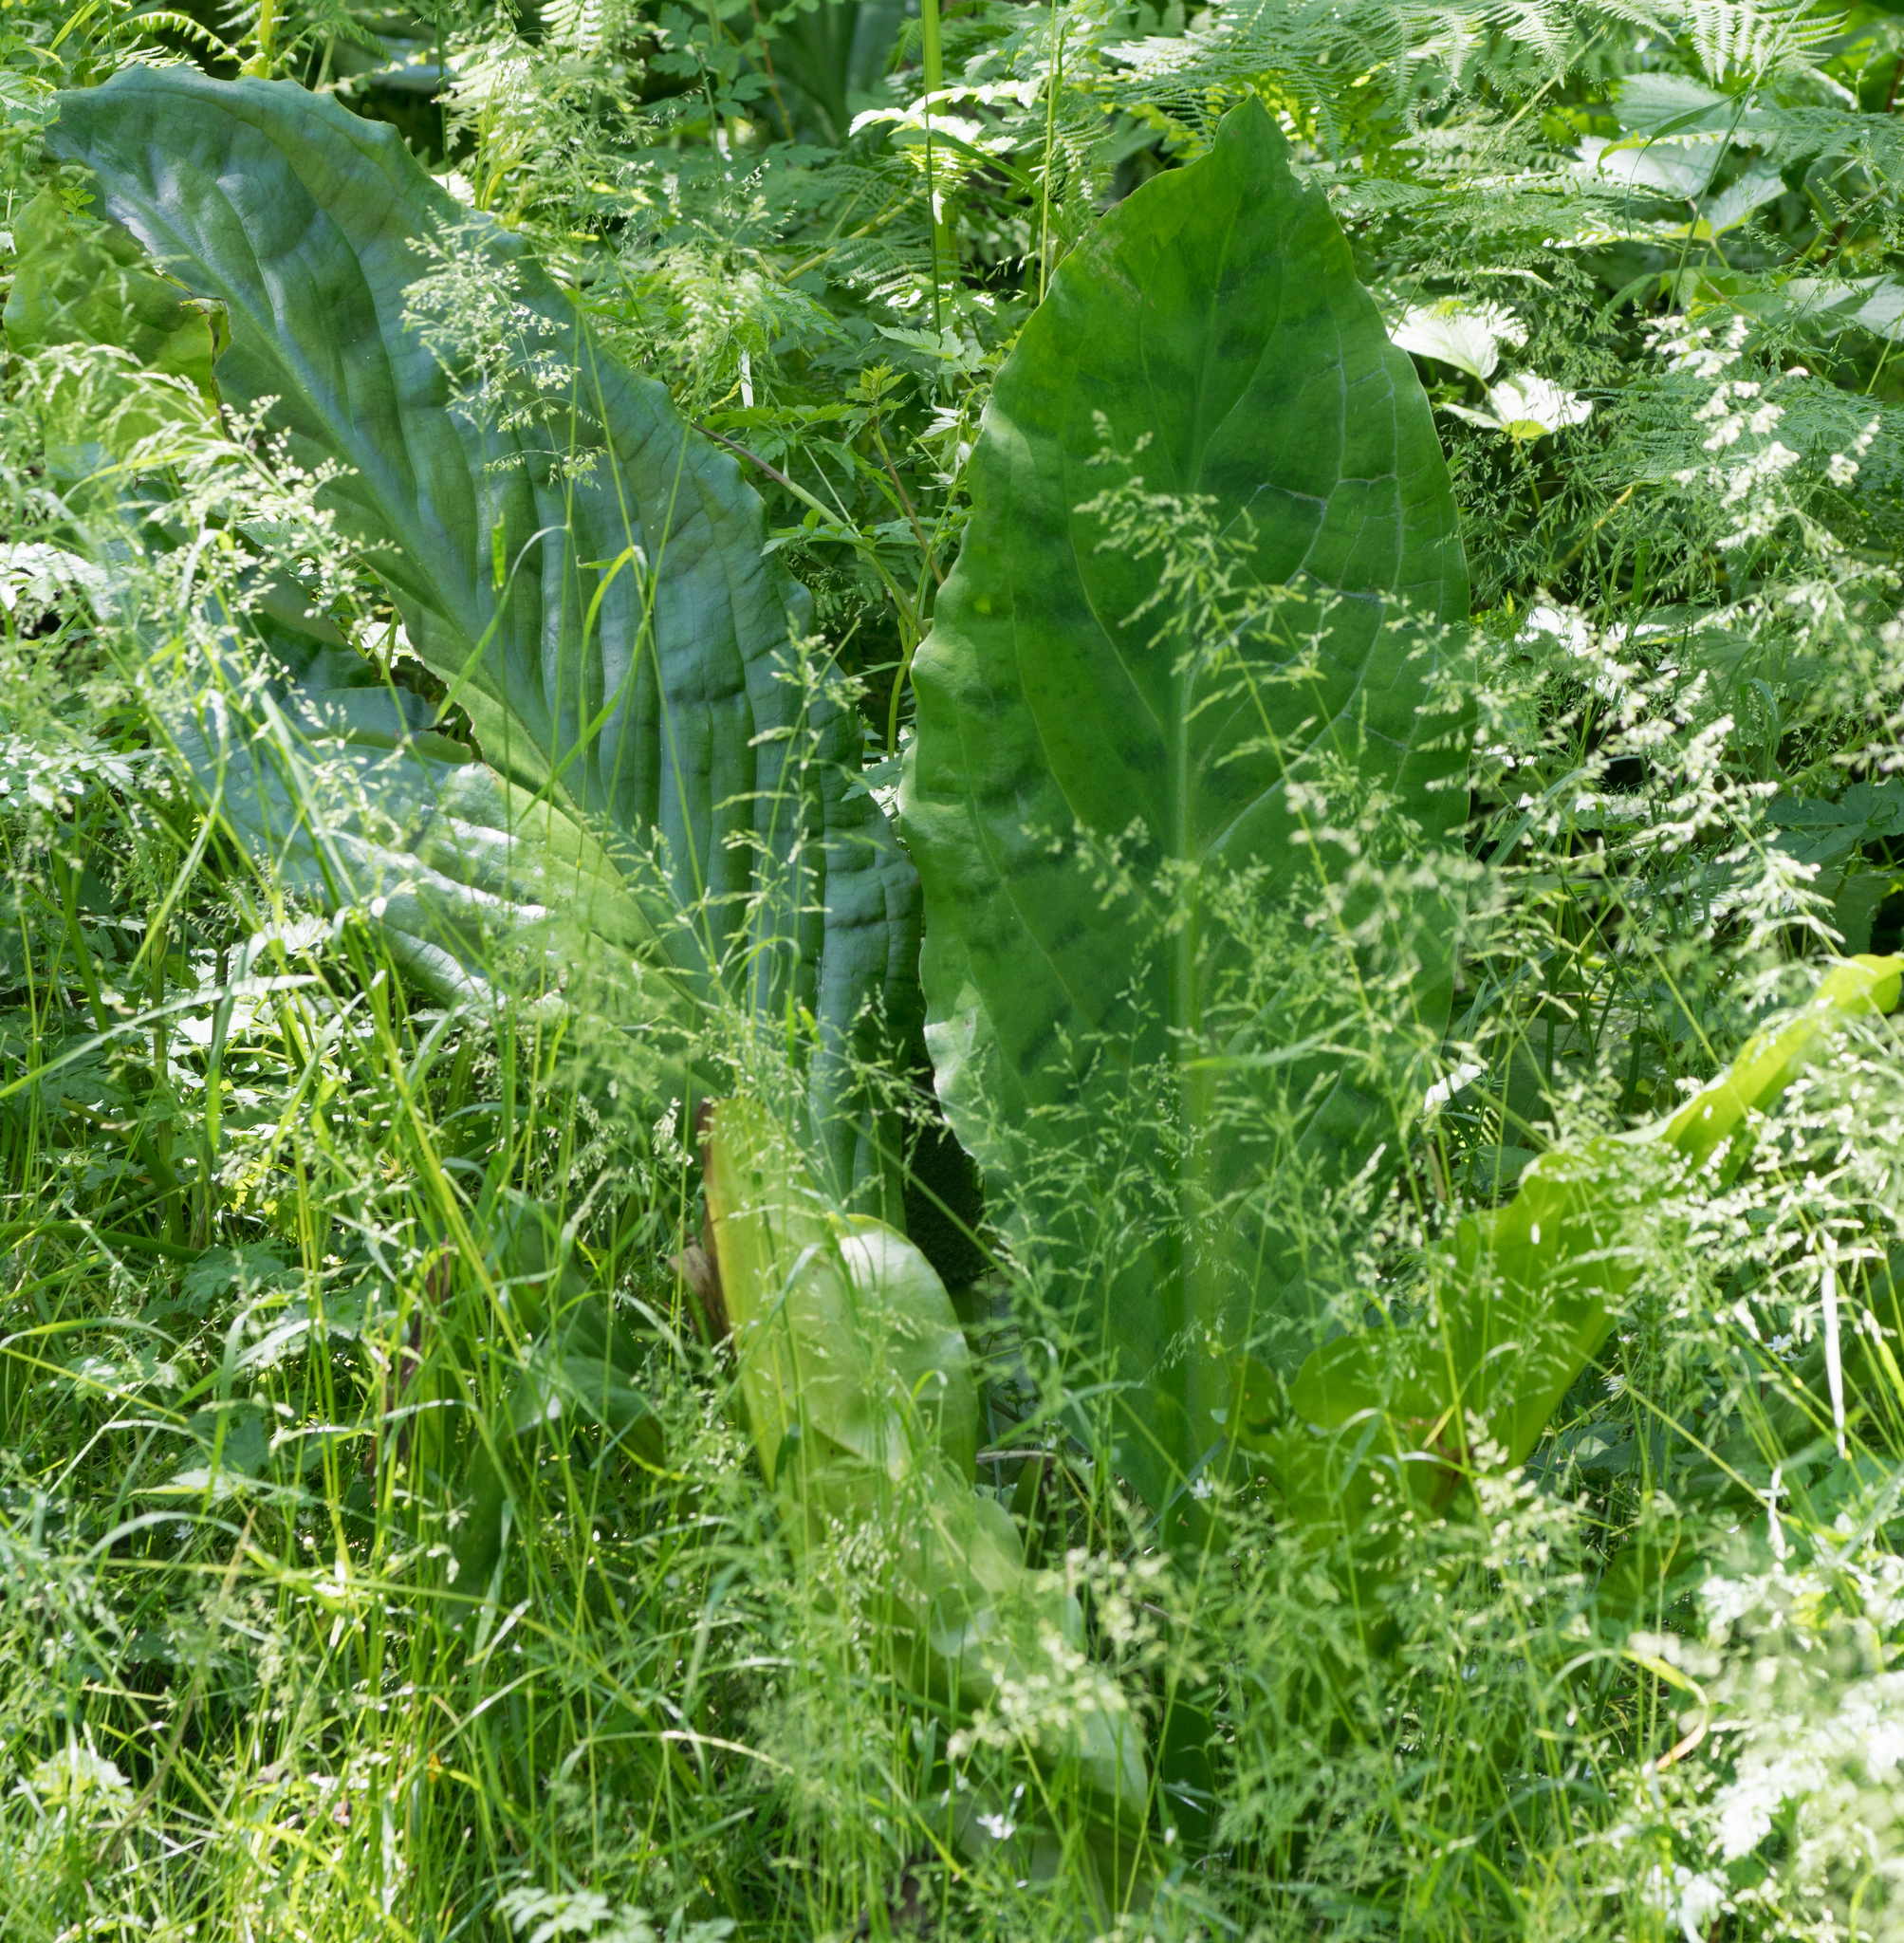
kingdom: Plantae
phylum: Tracheophyta
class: Liliopsida
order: Alismatales
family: Araceae
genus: Lysichiton
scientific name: Lysichiton americanus
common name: American skunk cabbage
